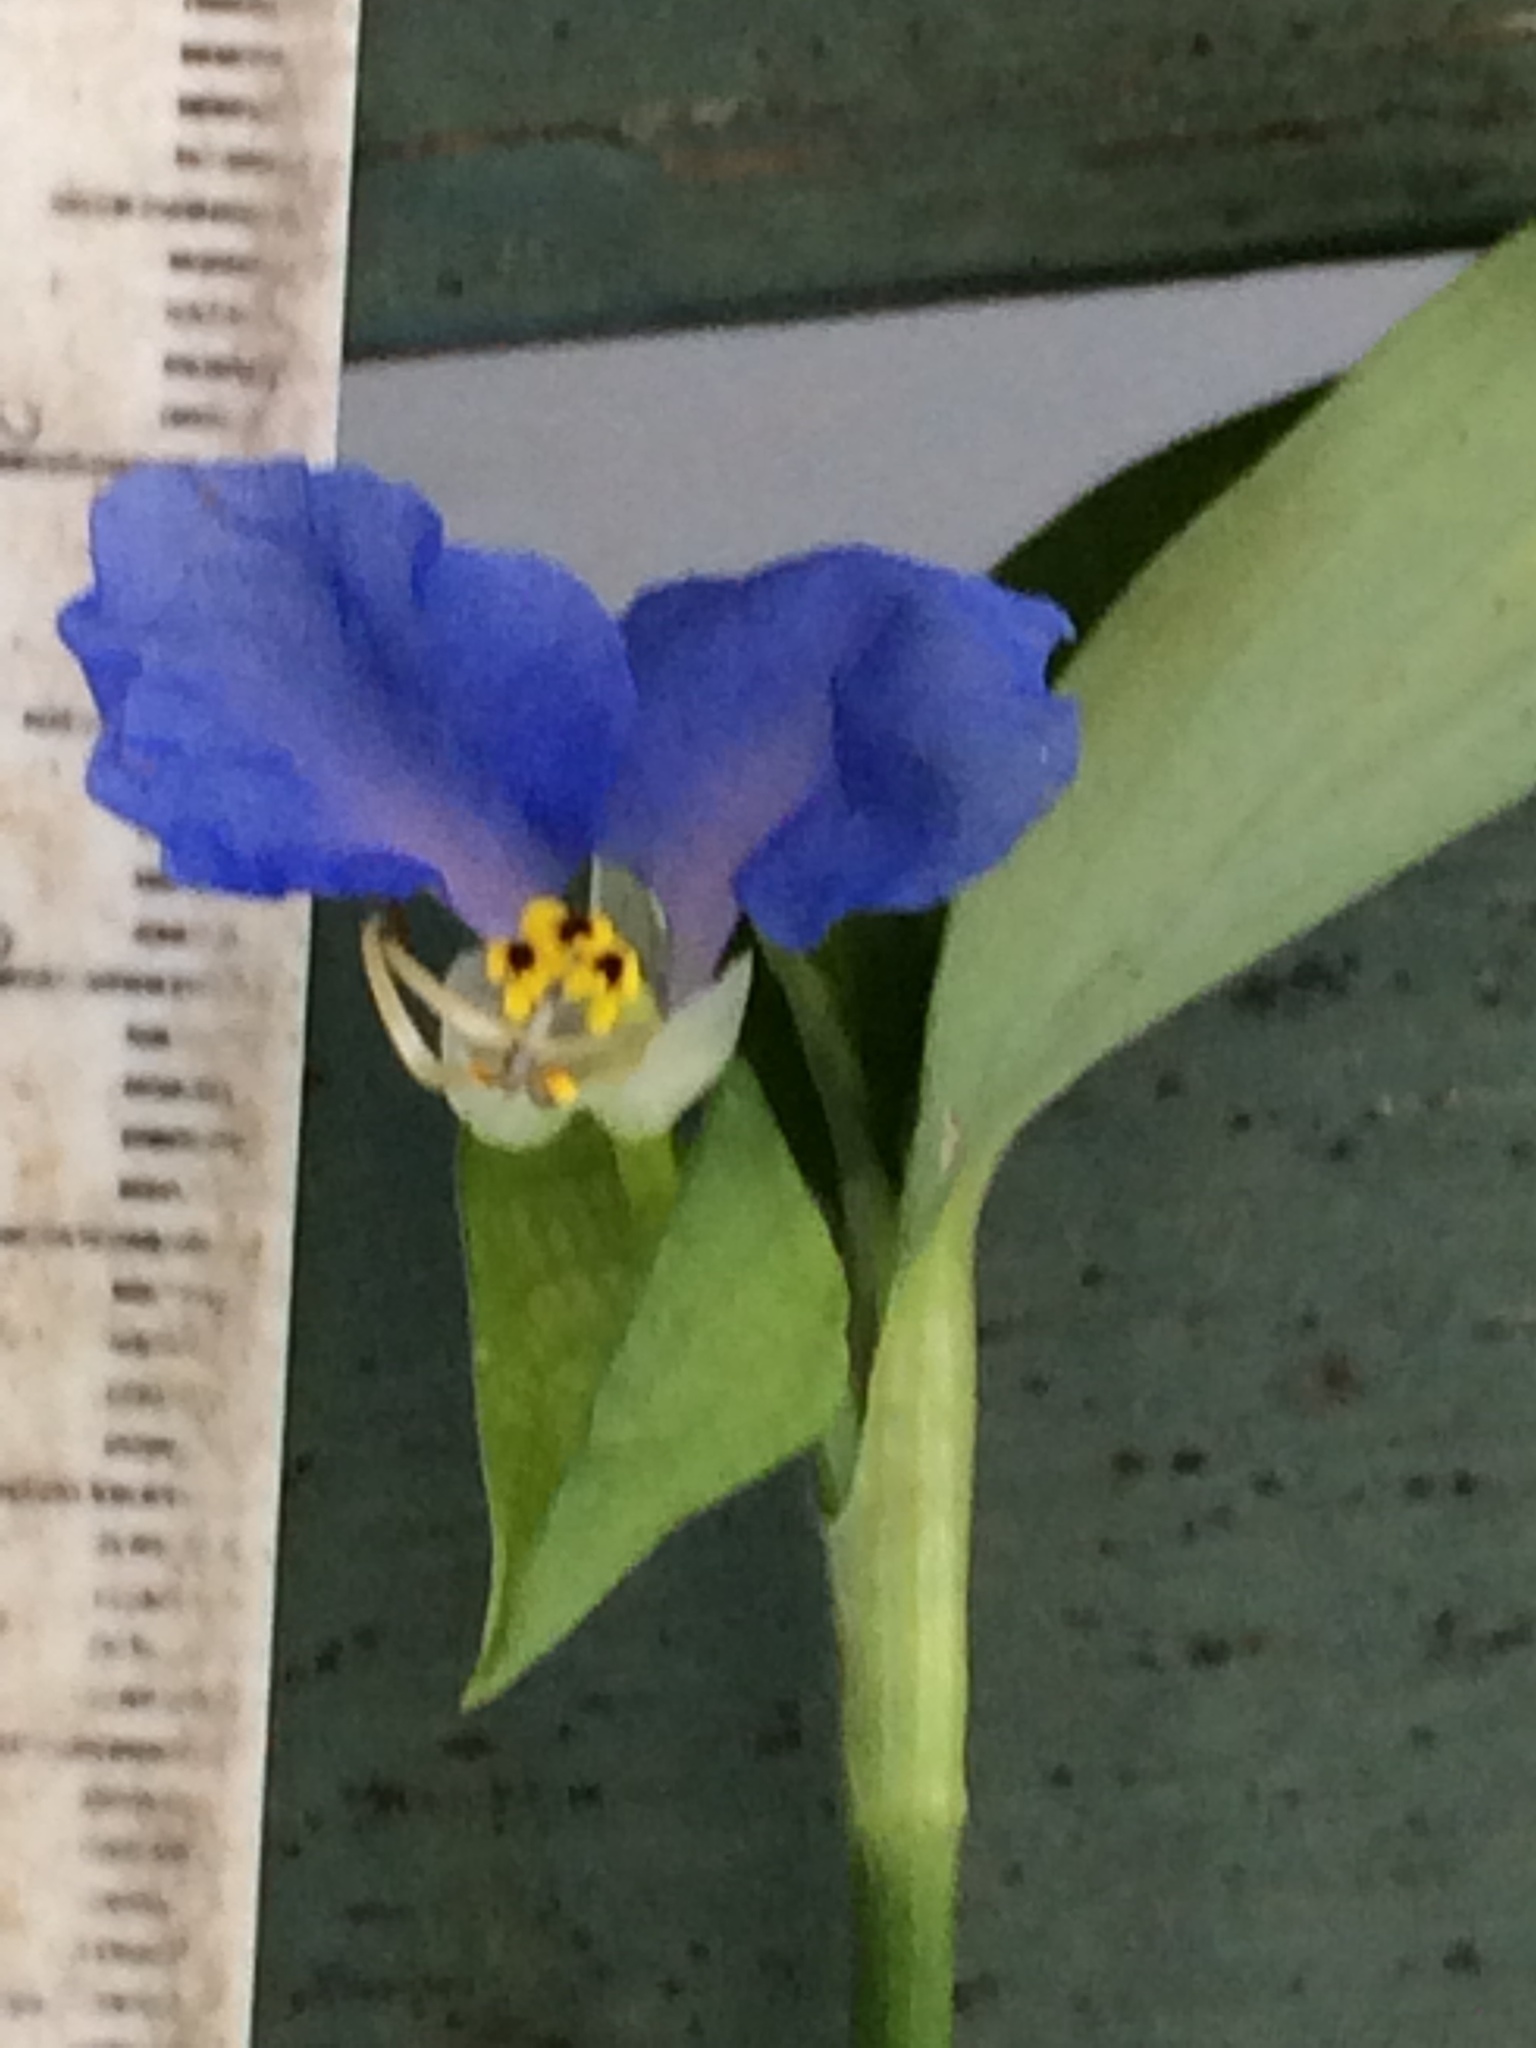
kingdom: Plantae
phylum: Tracheophyta
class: Liliopsida
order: Commelinales
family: Commelinaceae
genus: Commelina
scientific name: Commelina communis
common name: Asiatic dayflower
